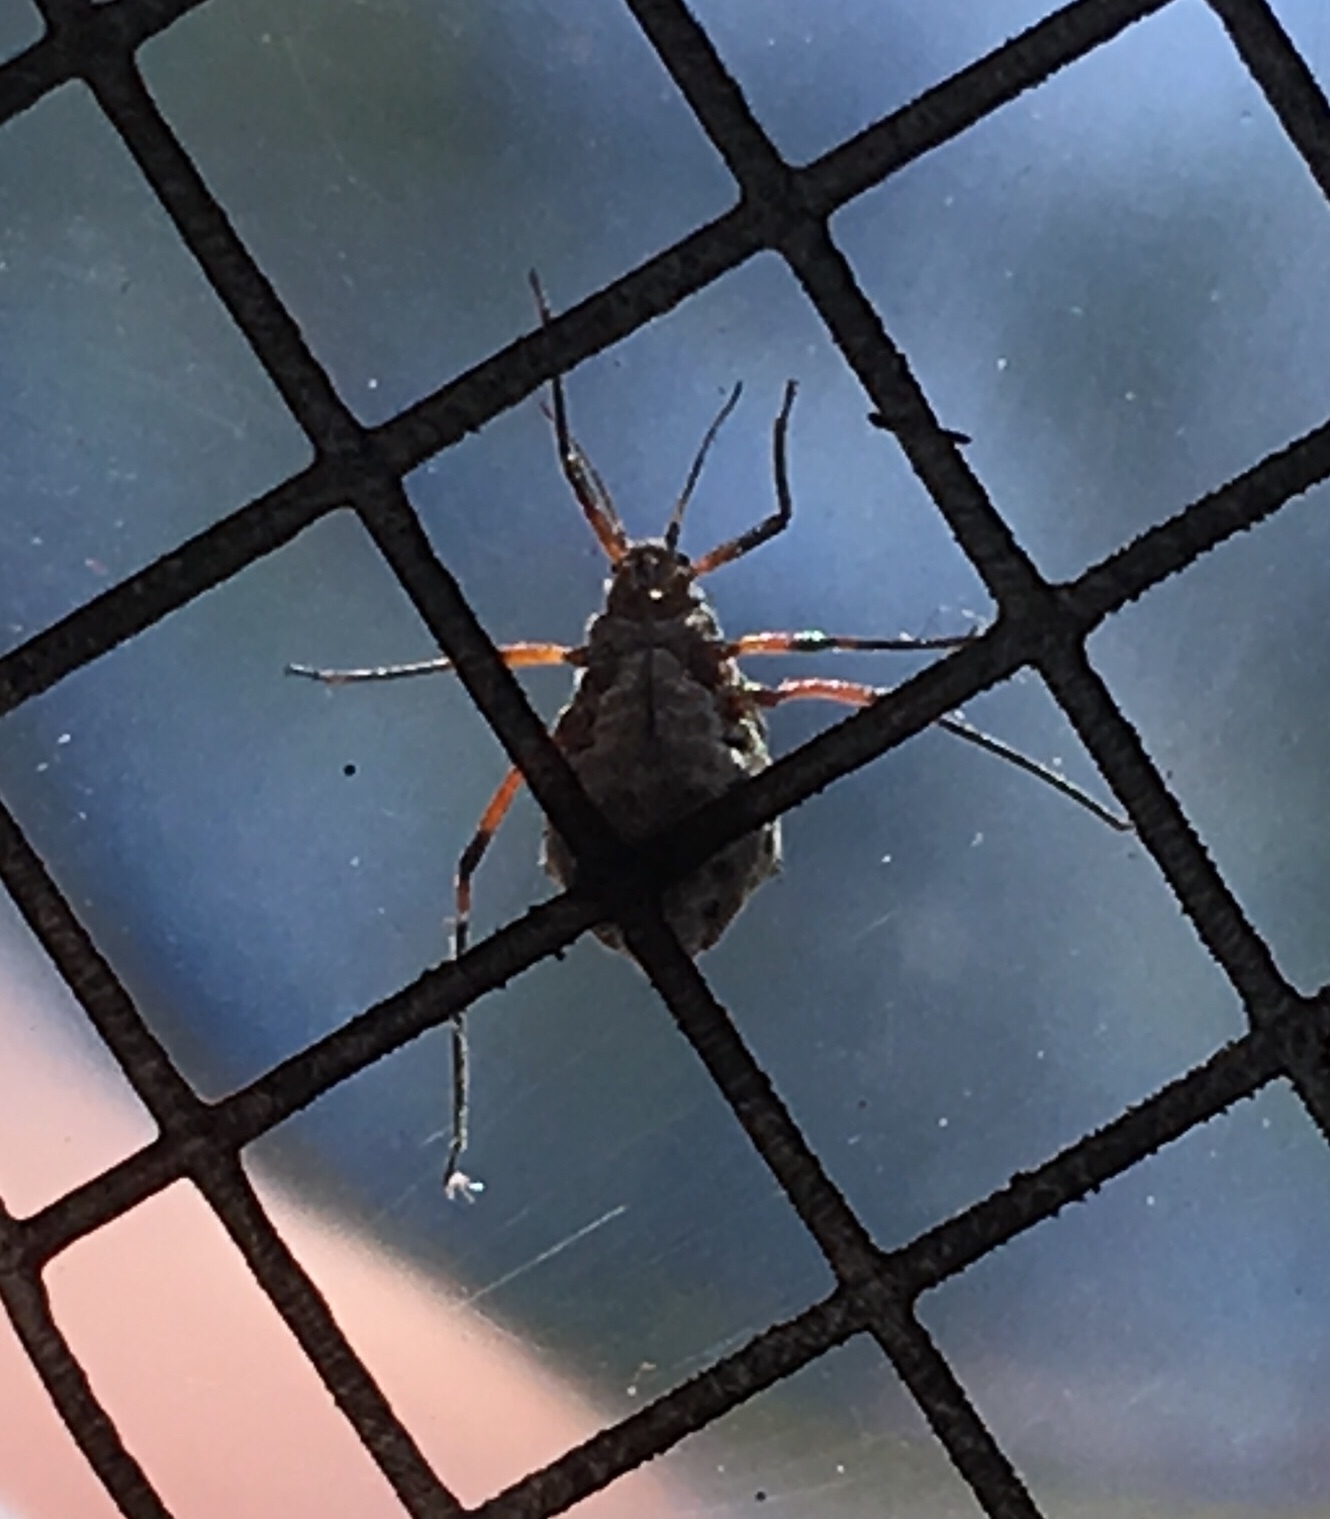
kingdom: Animalia
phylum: Arthropoda
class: Insecta
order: Hemiptera
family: Aphididae
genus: Tuberolachnus
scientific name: Tuberolachnus salignus
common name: Giant willow aphid
